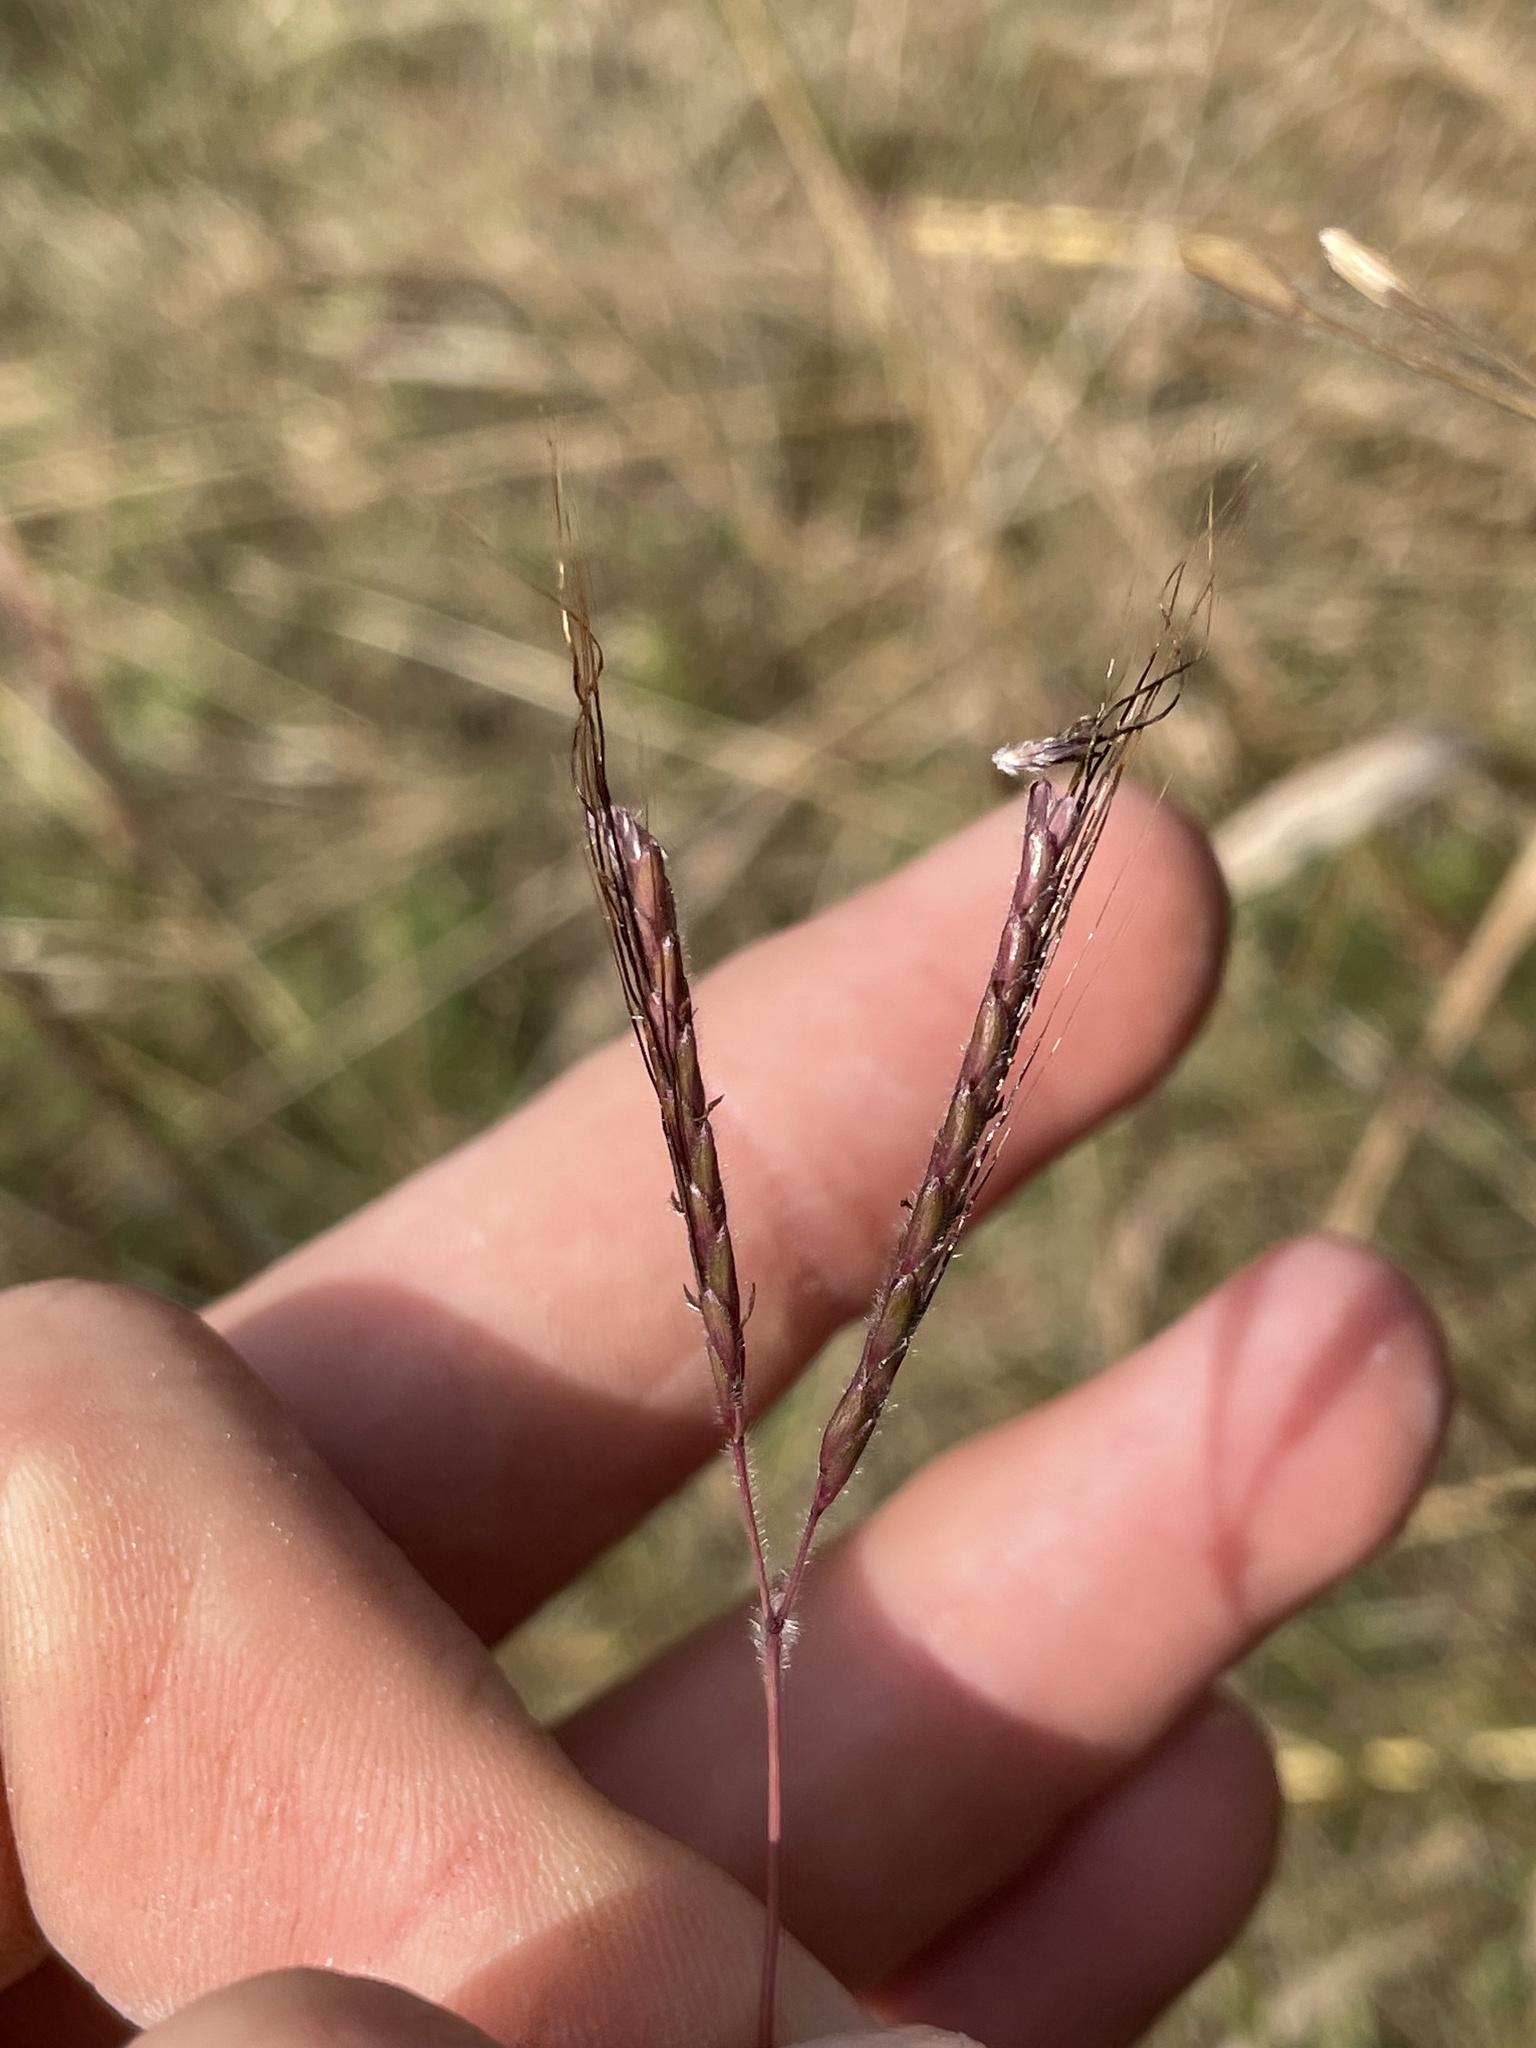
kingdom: Plantae
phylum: Tracheophyta
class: Liliopsida
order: Poales
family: Poaceae
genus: Dichanthium
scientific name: Dichanthium aristatum
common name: Angleton bluestem
